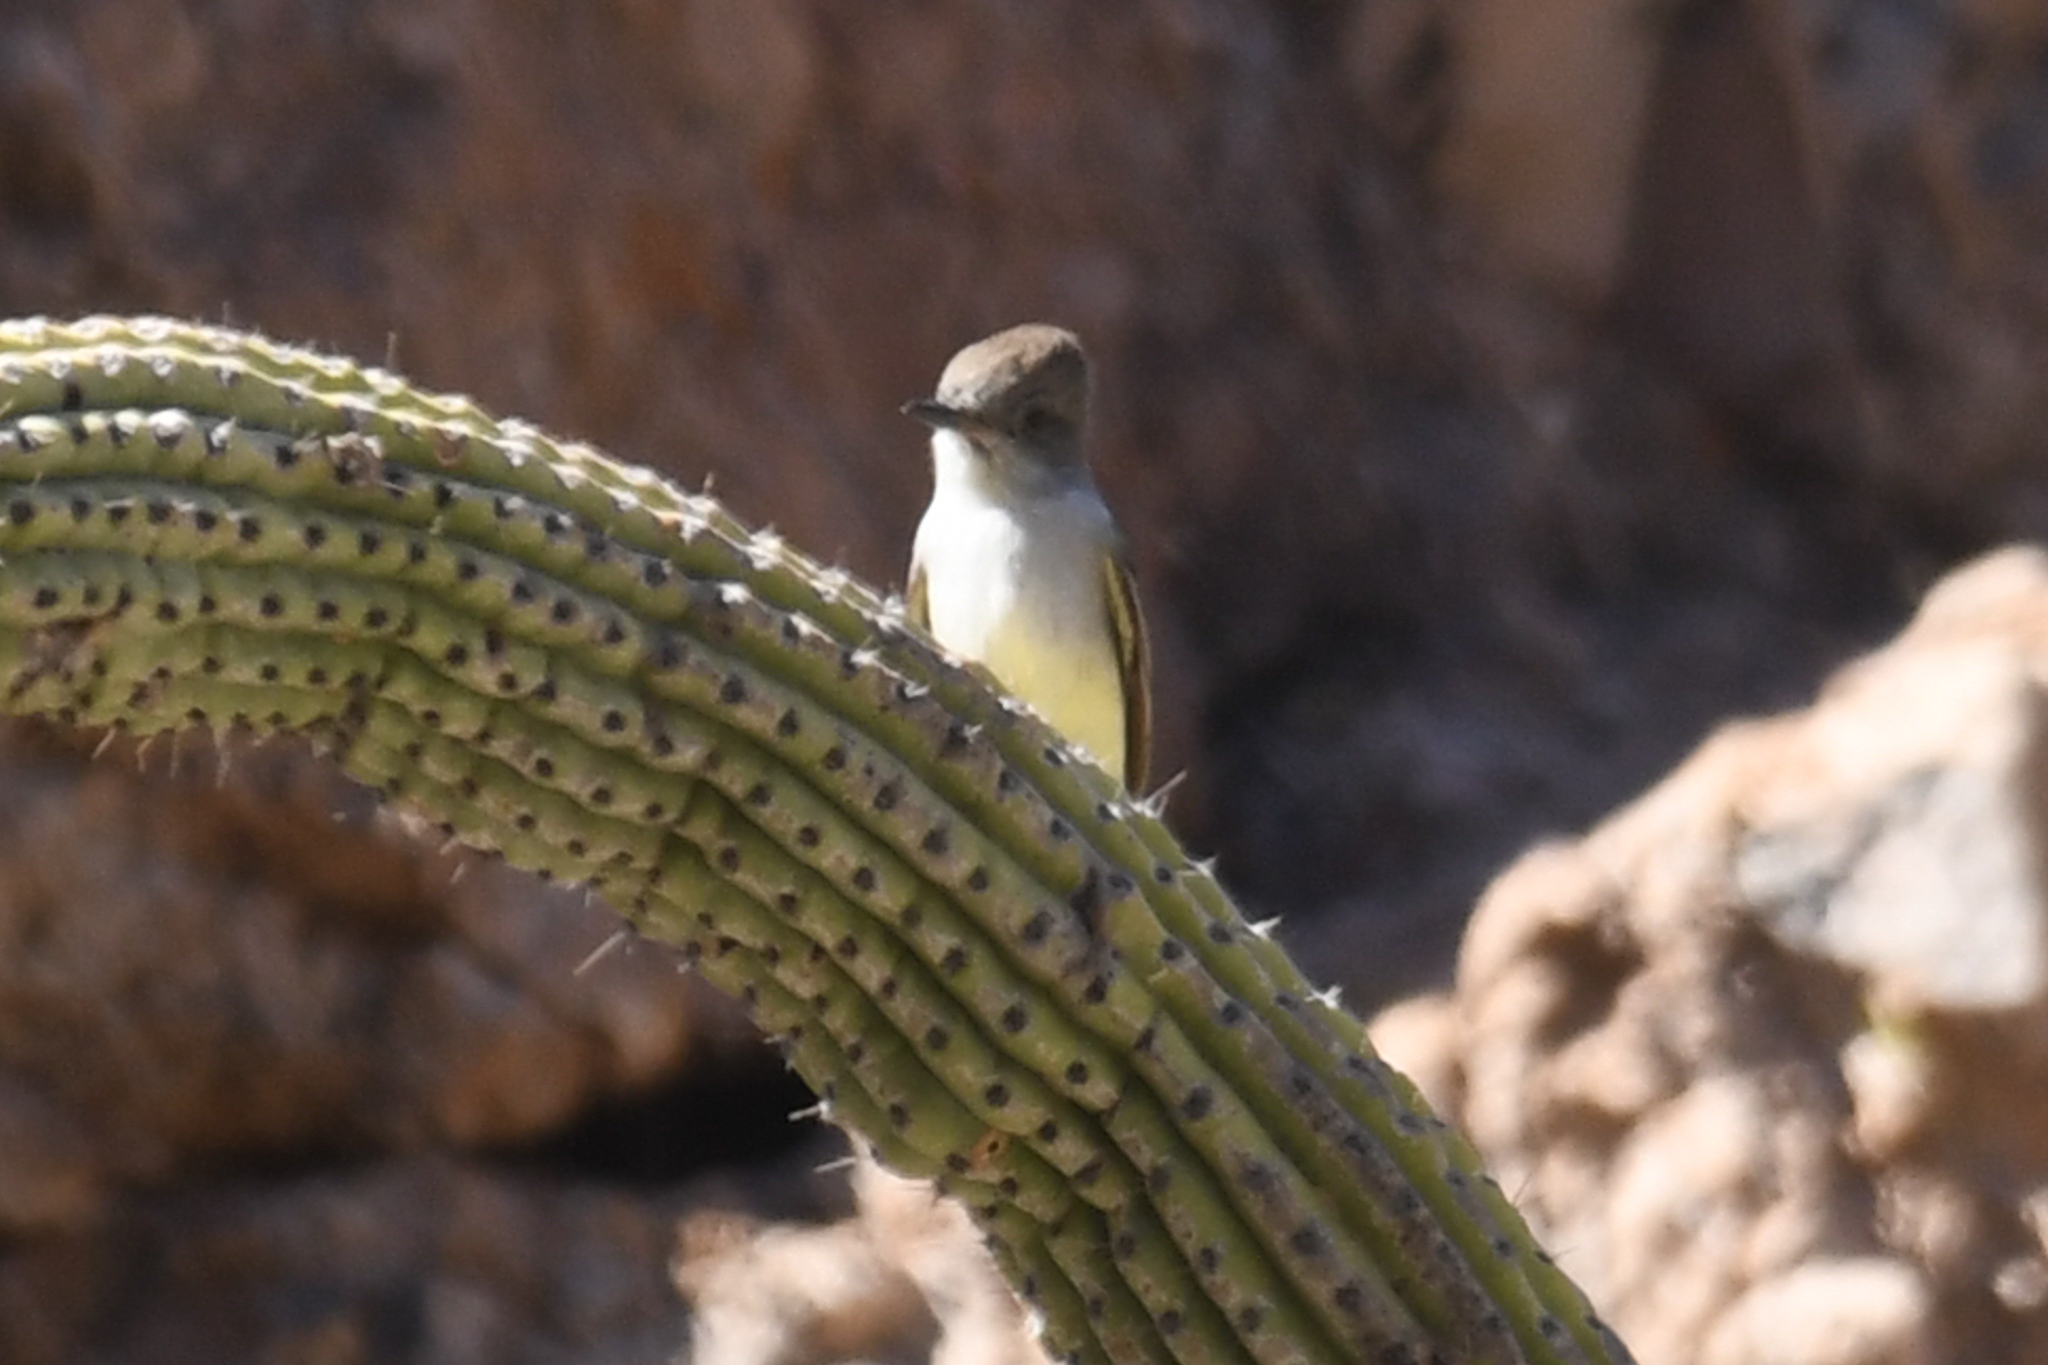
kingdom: Animalia
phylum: Chordata
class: Aves
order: Passeriformes
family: Tyrannidae
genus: Myiarchus
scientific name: Myiarchus cinerascens
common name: Ash-throated flycatcher
